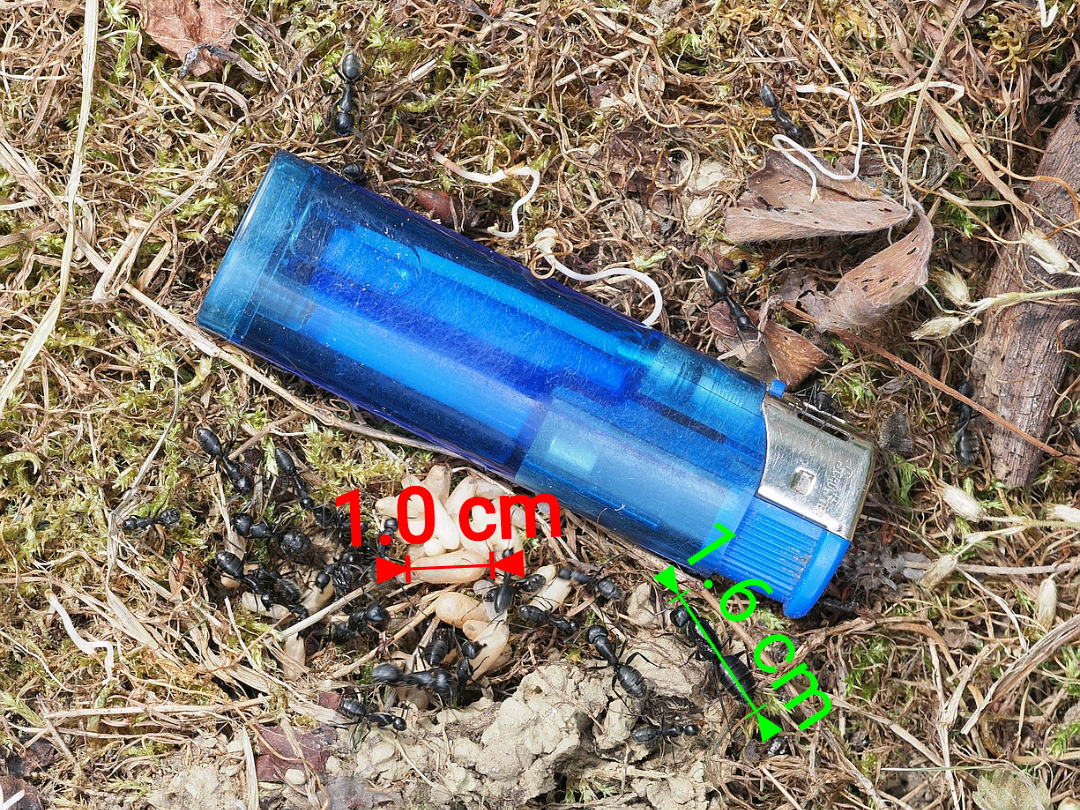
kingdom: Animalia
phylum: Arthropoda
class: Insecta
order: Hymenoptera
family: Formicidae
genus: Camponotus
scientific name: Camponotus vagus
